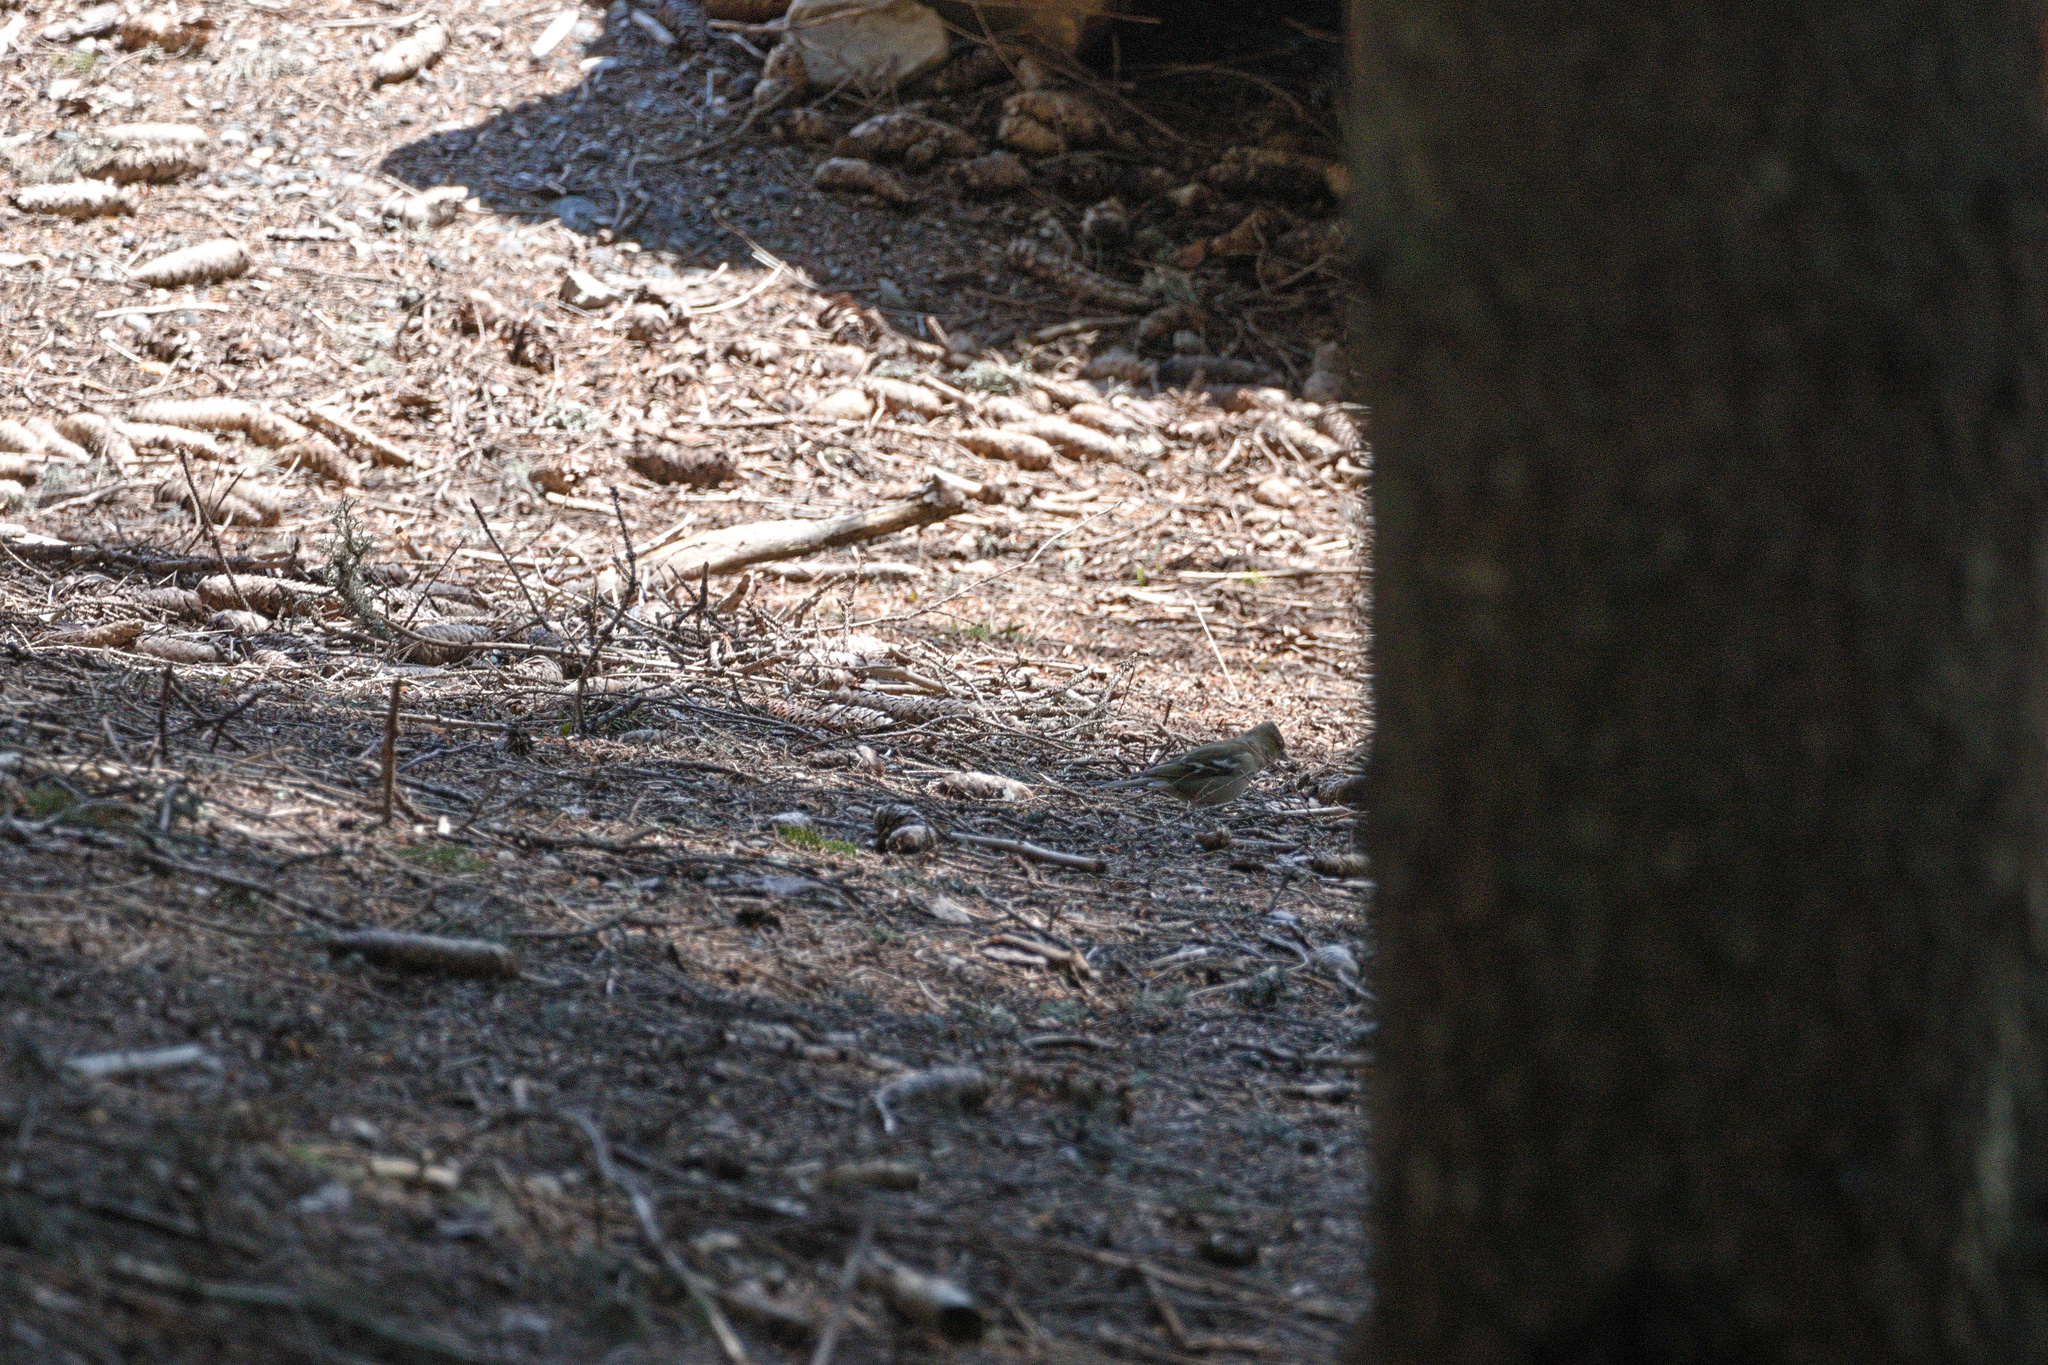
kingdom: Animalia
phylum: Chordata
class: Aves
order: Passeriformes
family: Fringillidae
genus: Fringilla
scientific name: Fringilla coelebs
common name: Common chaffinch
